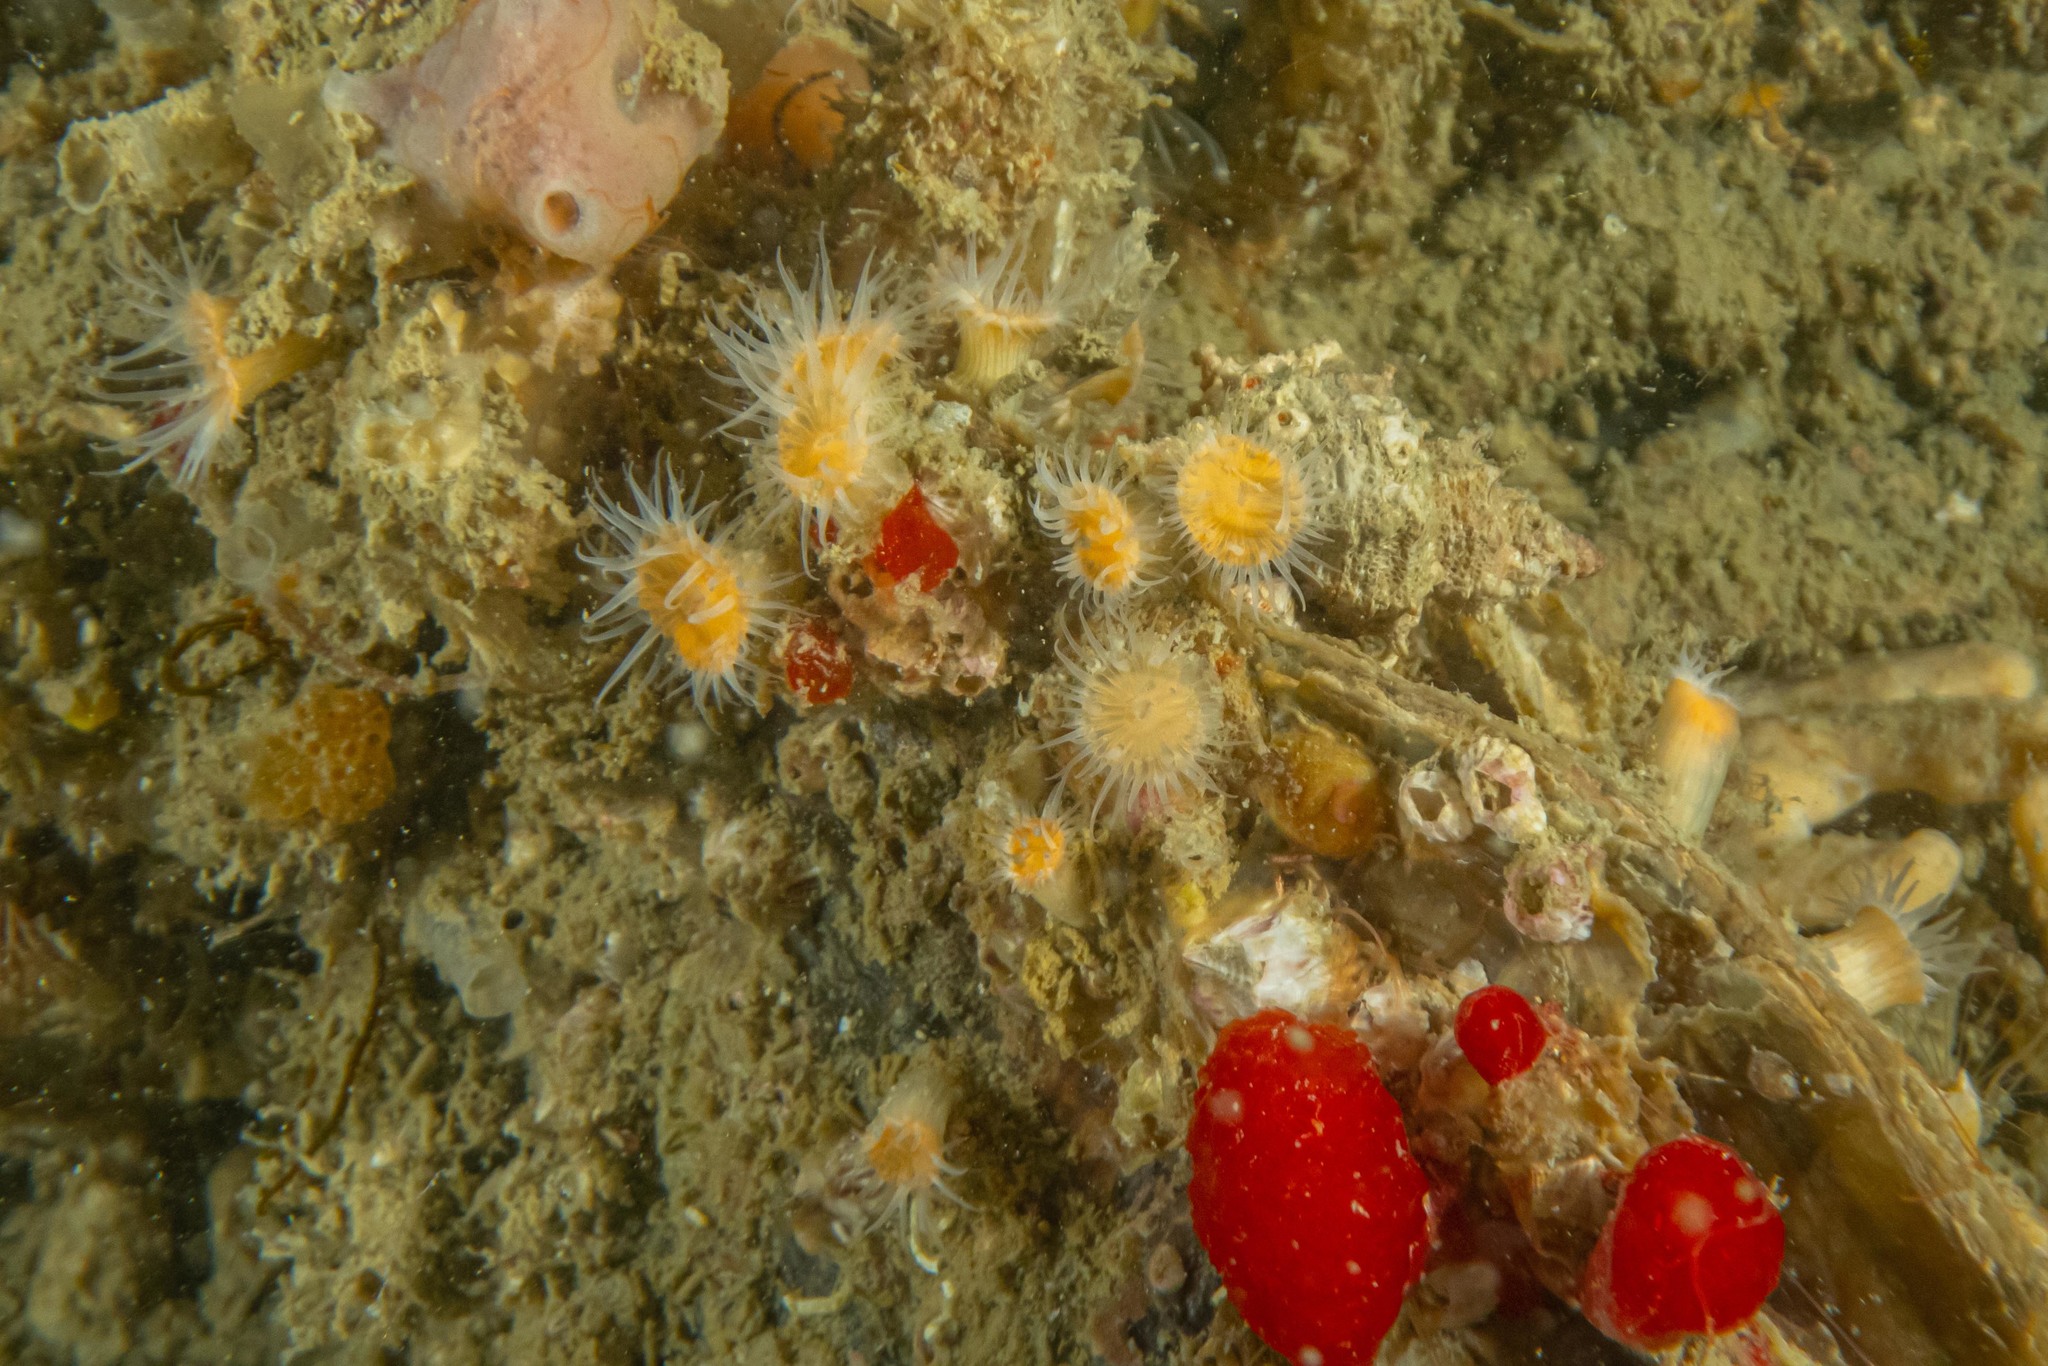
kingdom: Animalia
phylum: Cnidaria
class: Anthozoa
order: Actiniaria
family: Sagartiidae
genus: Anthothoe
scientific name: Anthothoe albocincta
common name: Orange striped anemone
